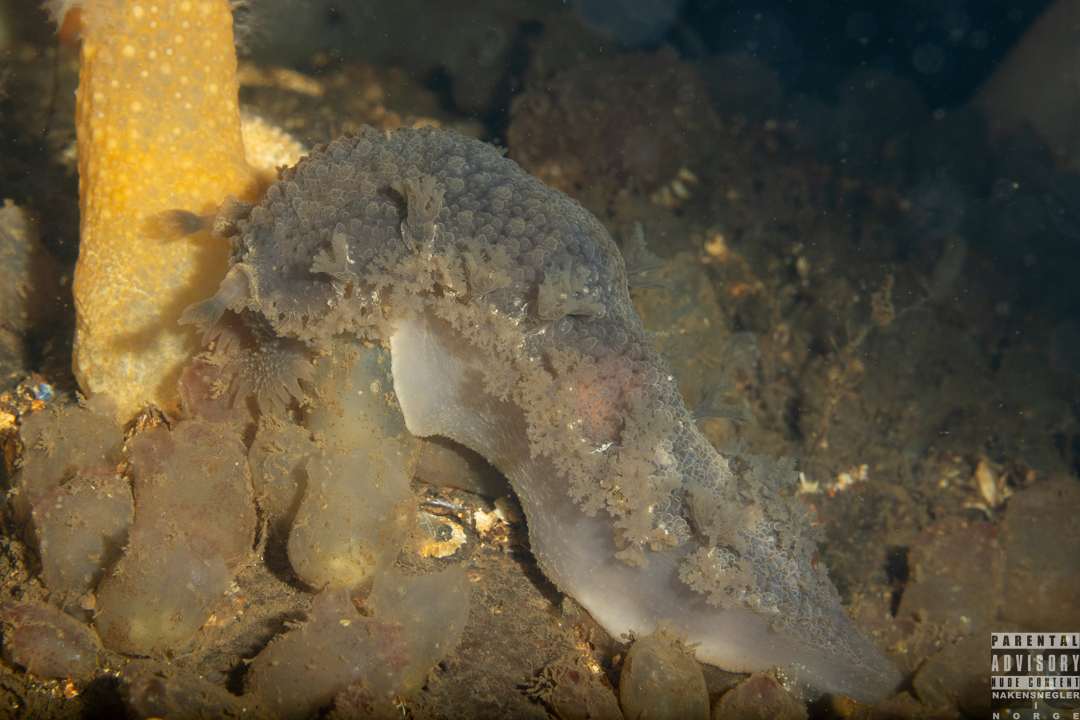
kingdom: Animalia
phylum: Mollusca
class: Gastropoda
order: Nudibranchia
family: Tritoniidae
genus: Tritonia
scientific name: Tritonia hombergii
